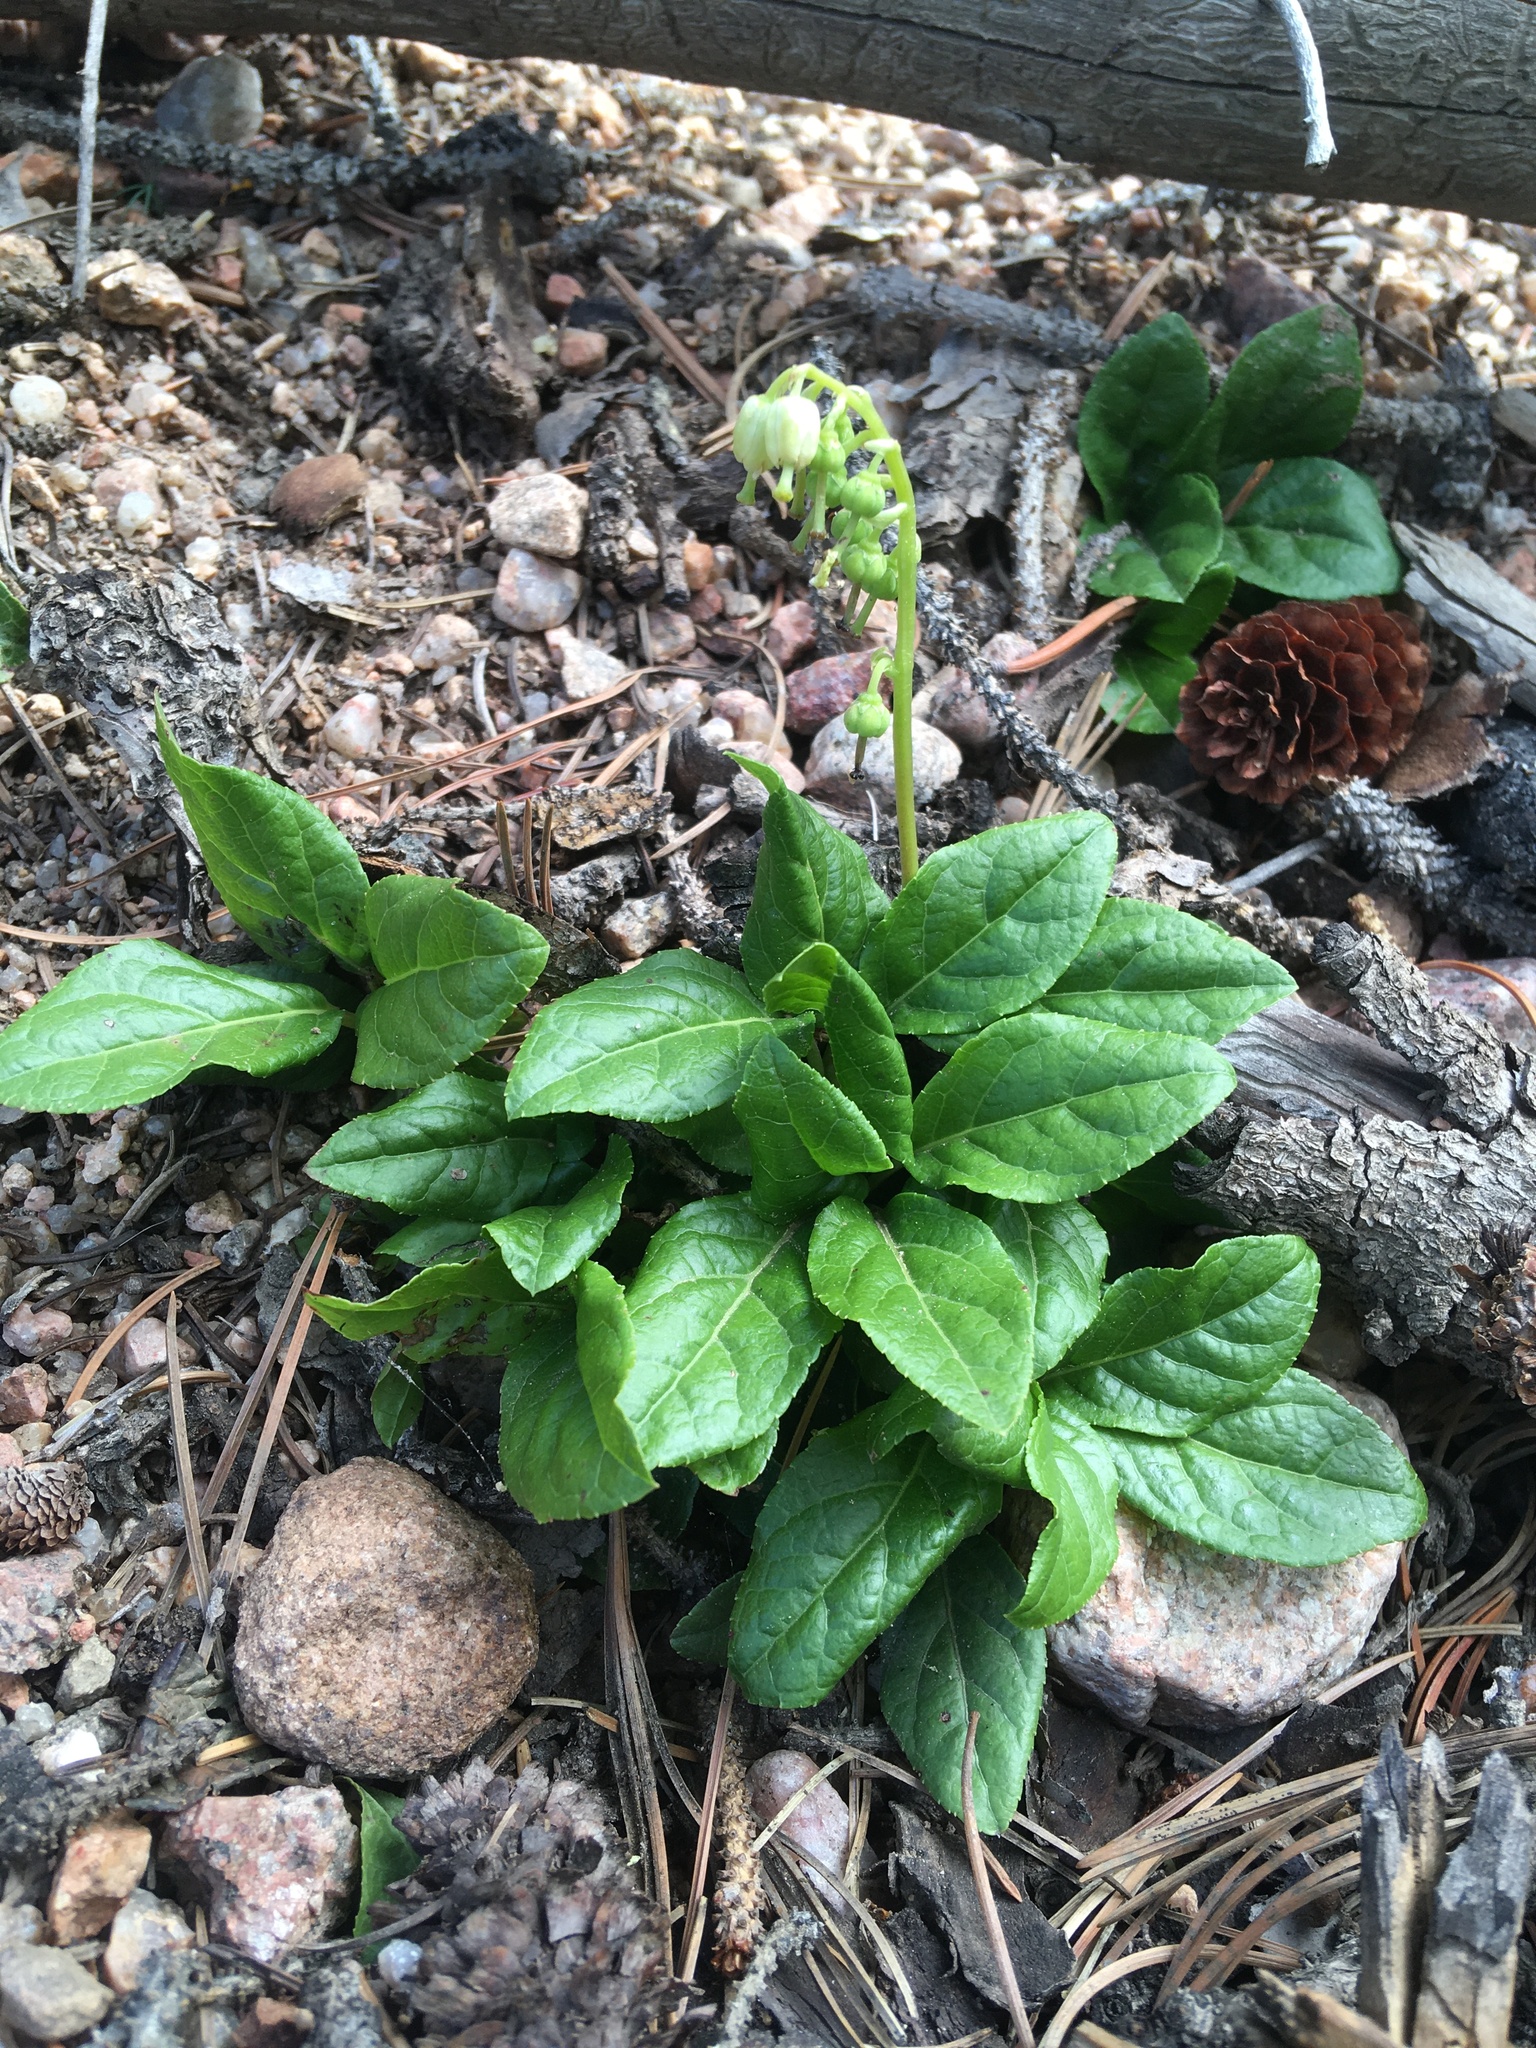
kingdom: Plantae
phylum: Tracheophyta
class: Magnoliopsida
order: Ericales
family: Ericaceae
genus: Orthilia
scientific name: Orthilia secunda
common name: One-sided orthilia
